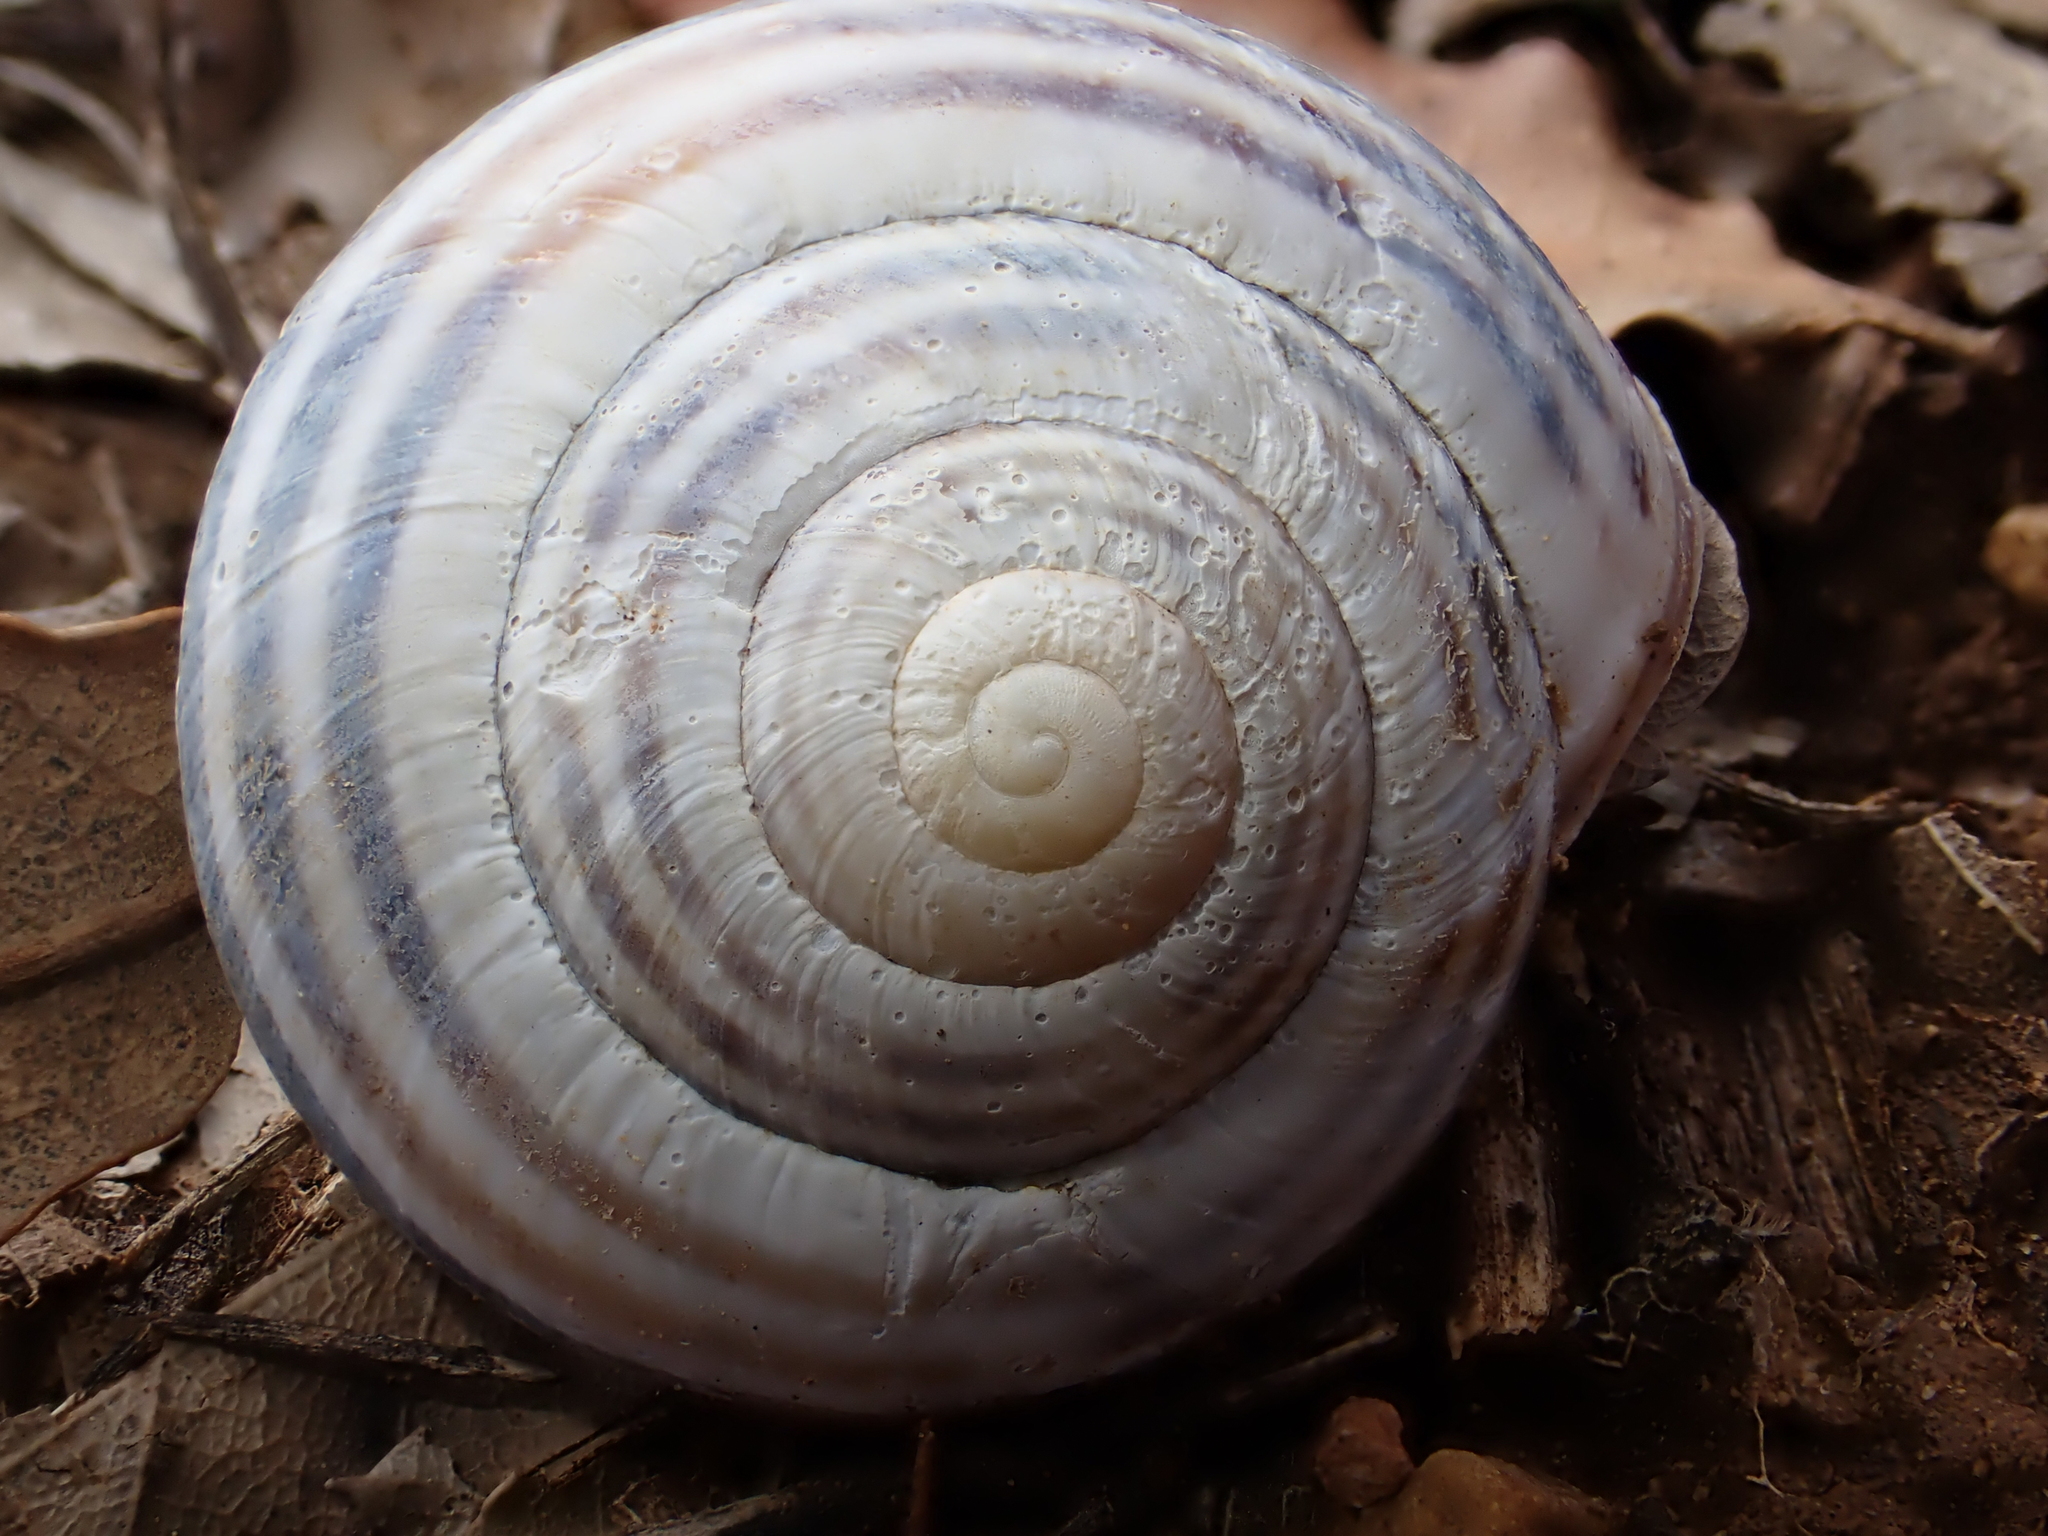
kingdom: Animalia
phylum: Mollusca
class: Gastropoda
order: Stylommatophora
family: Helicidae
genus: Cepaea
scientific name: Cepaea nemoralis
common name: Grovesnail
